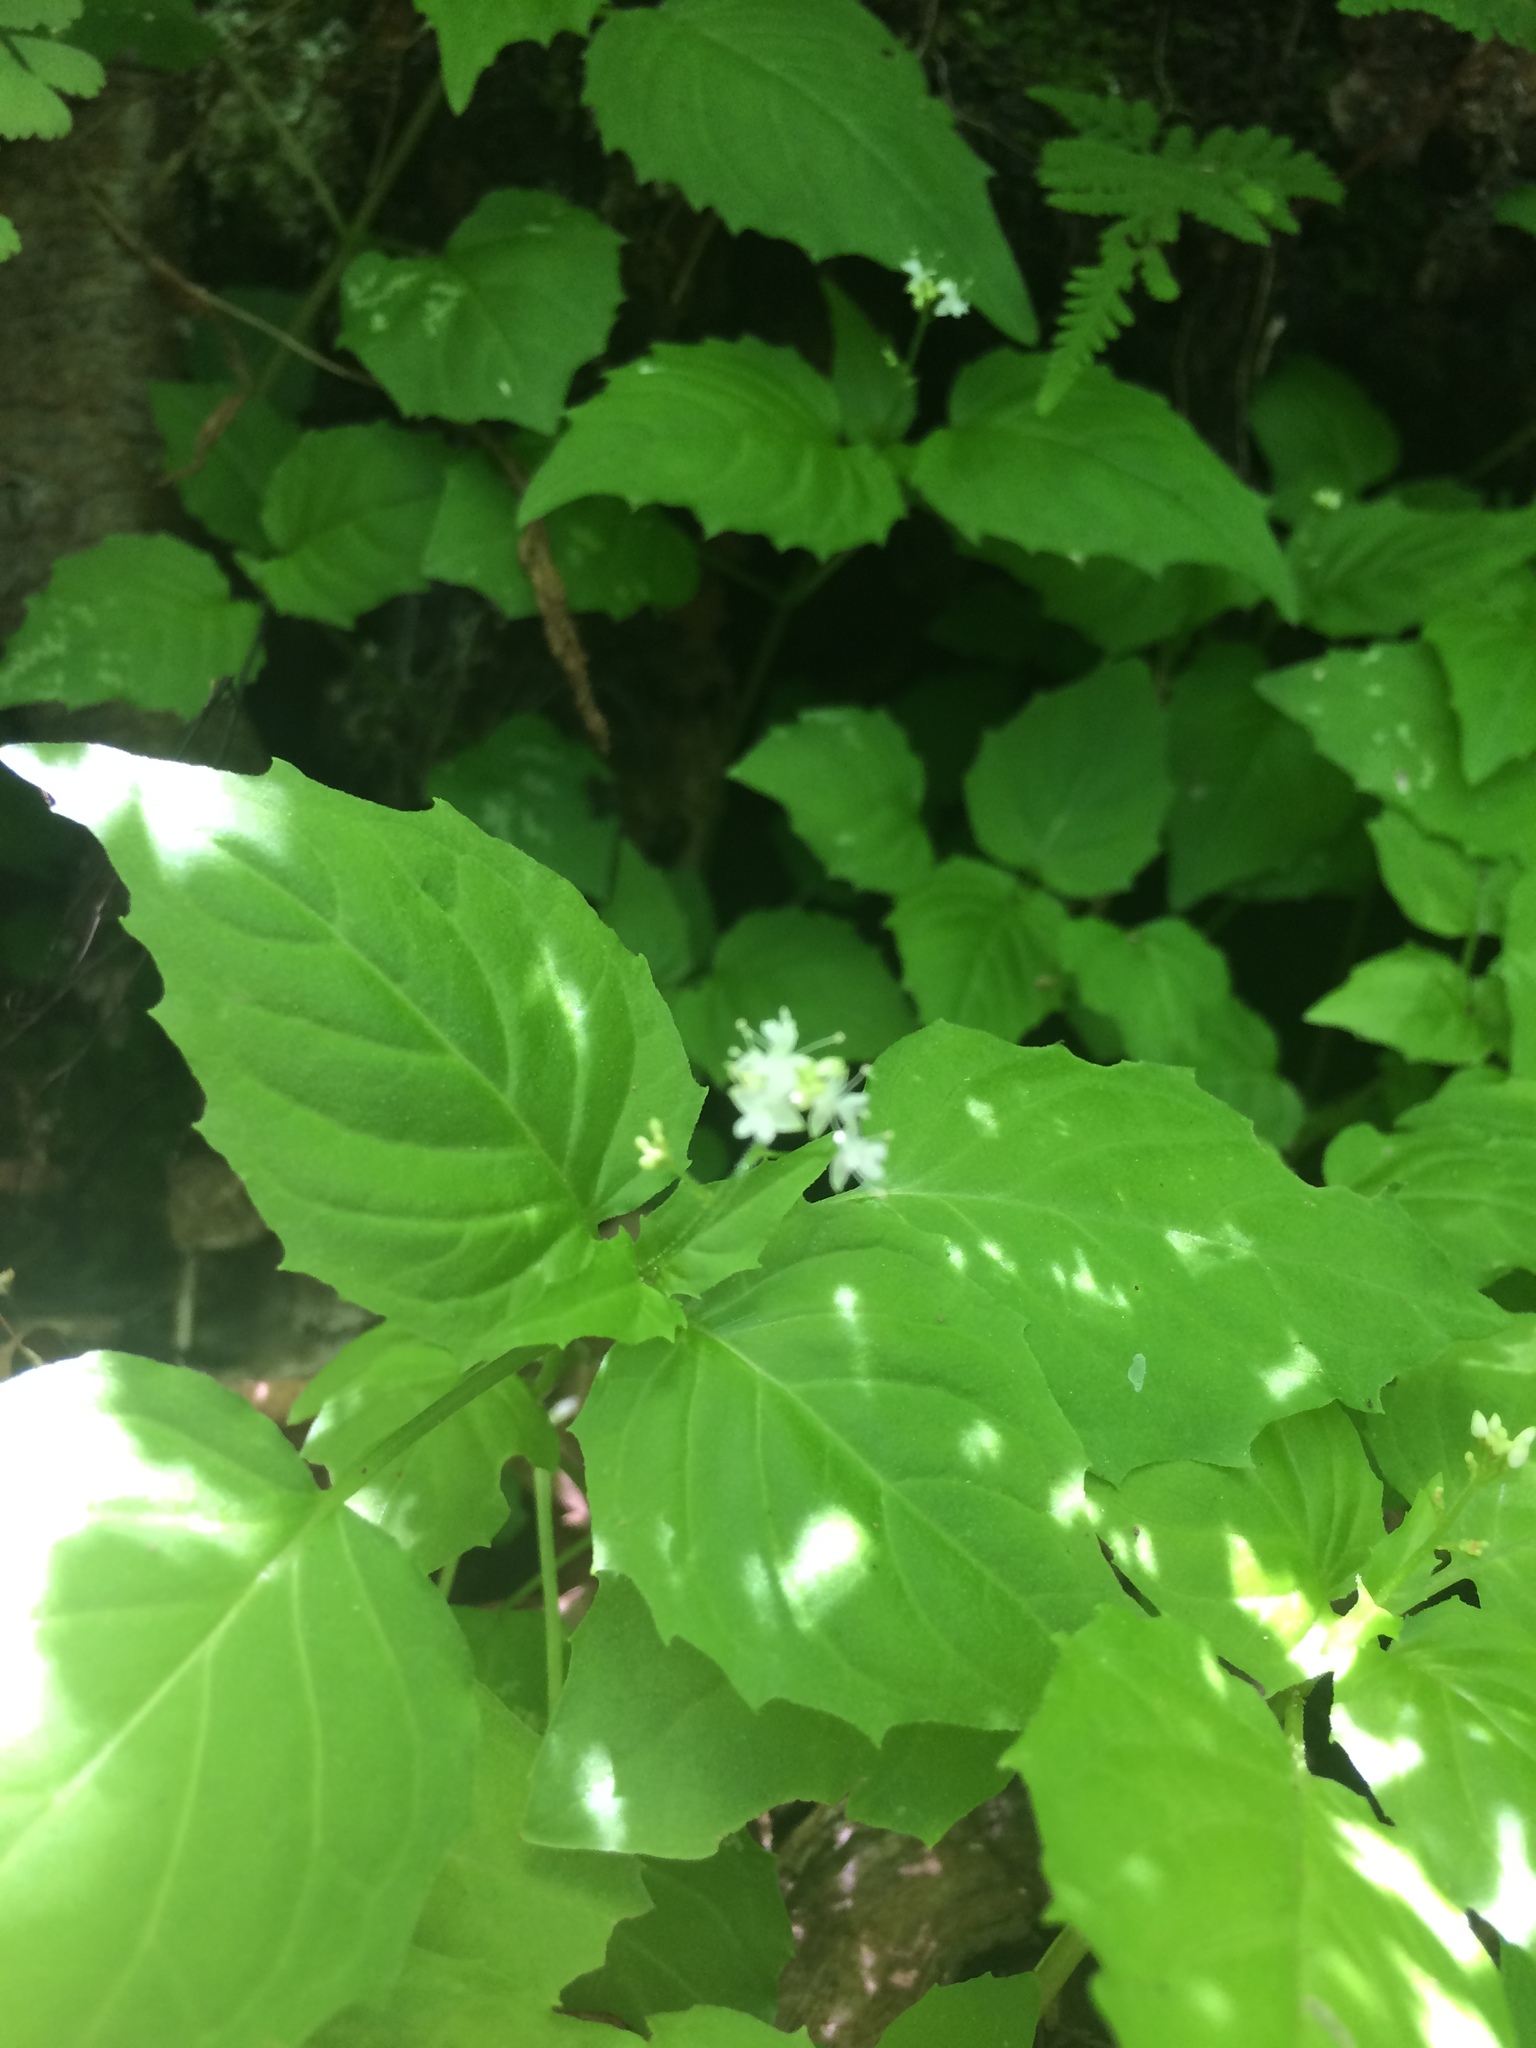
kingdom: Plantae
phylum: Tracheophyta
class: Magnoliopsida
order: Myrtales
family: Onagraceae
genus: Circaea
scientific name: Circaea alpina
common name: Alpine enchanter's-nightshade
